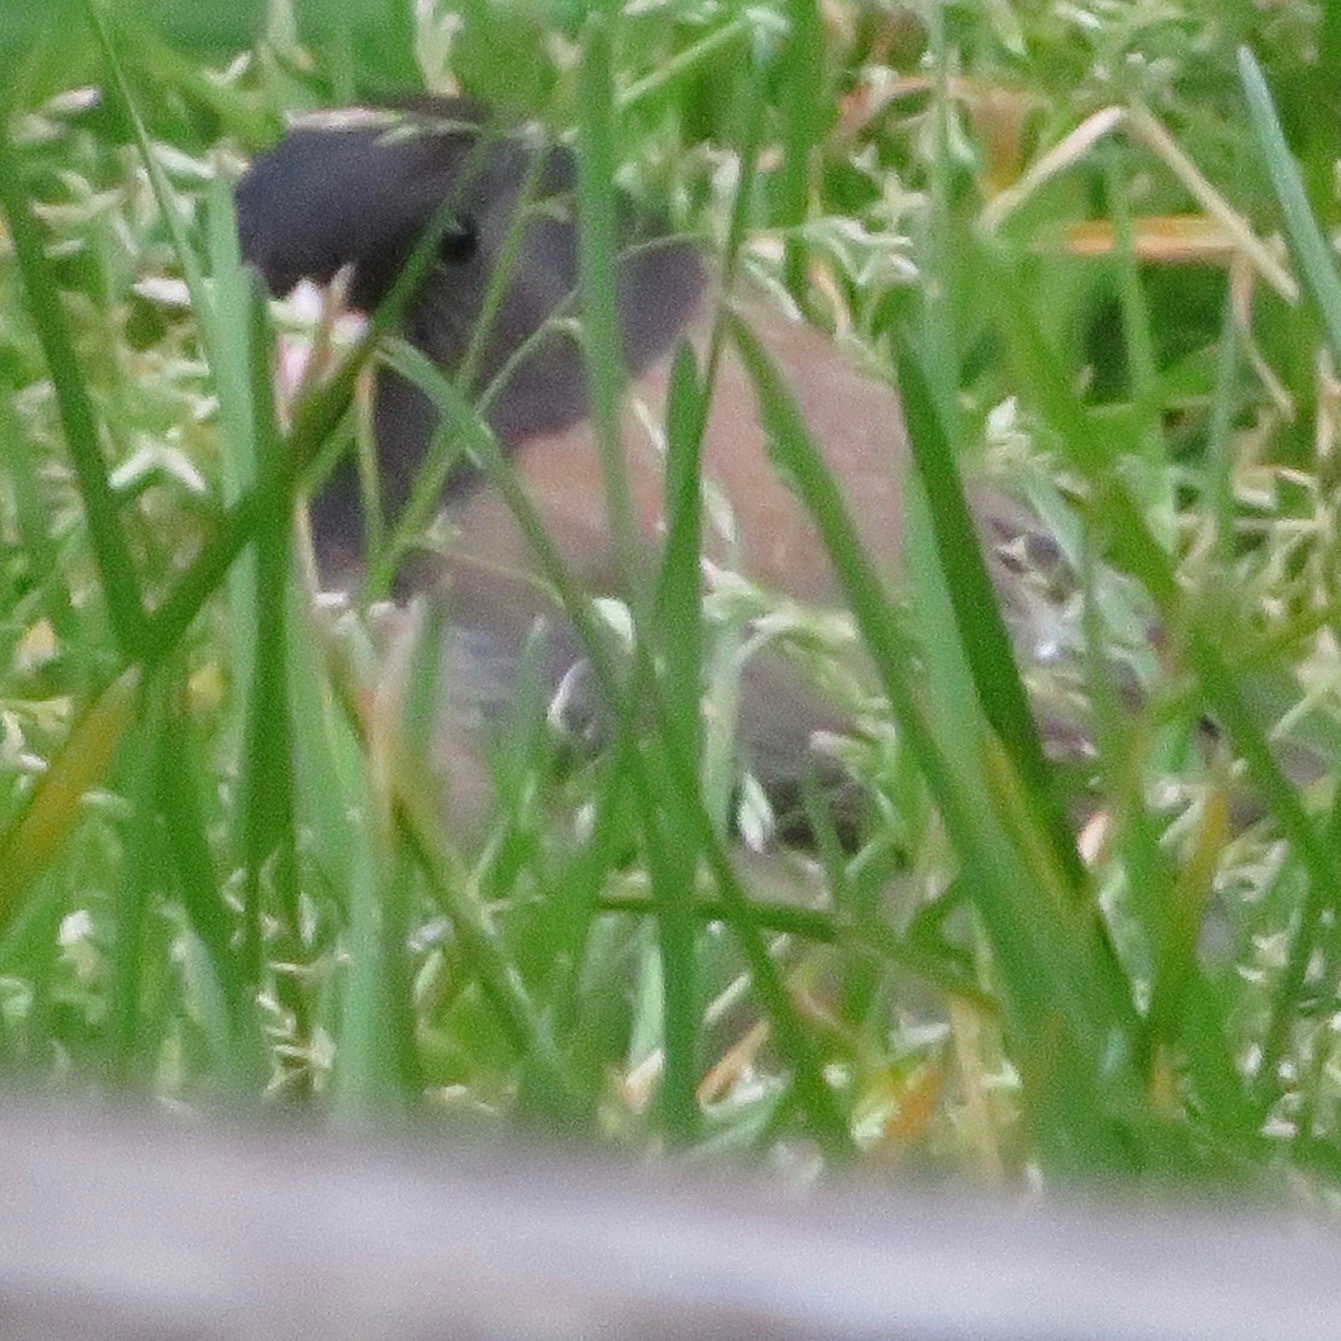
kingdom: Animalia
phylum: Chordata
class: Aves
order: Passeriformes
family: Passerellidae
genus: Junco
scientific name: Junco hyemalis
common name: Dark-eyed junco
